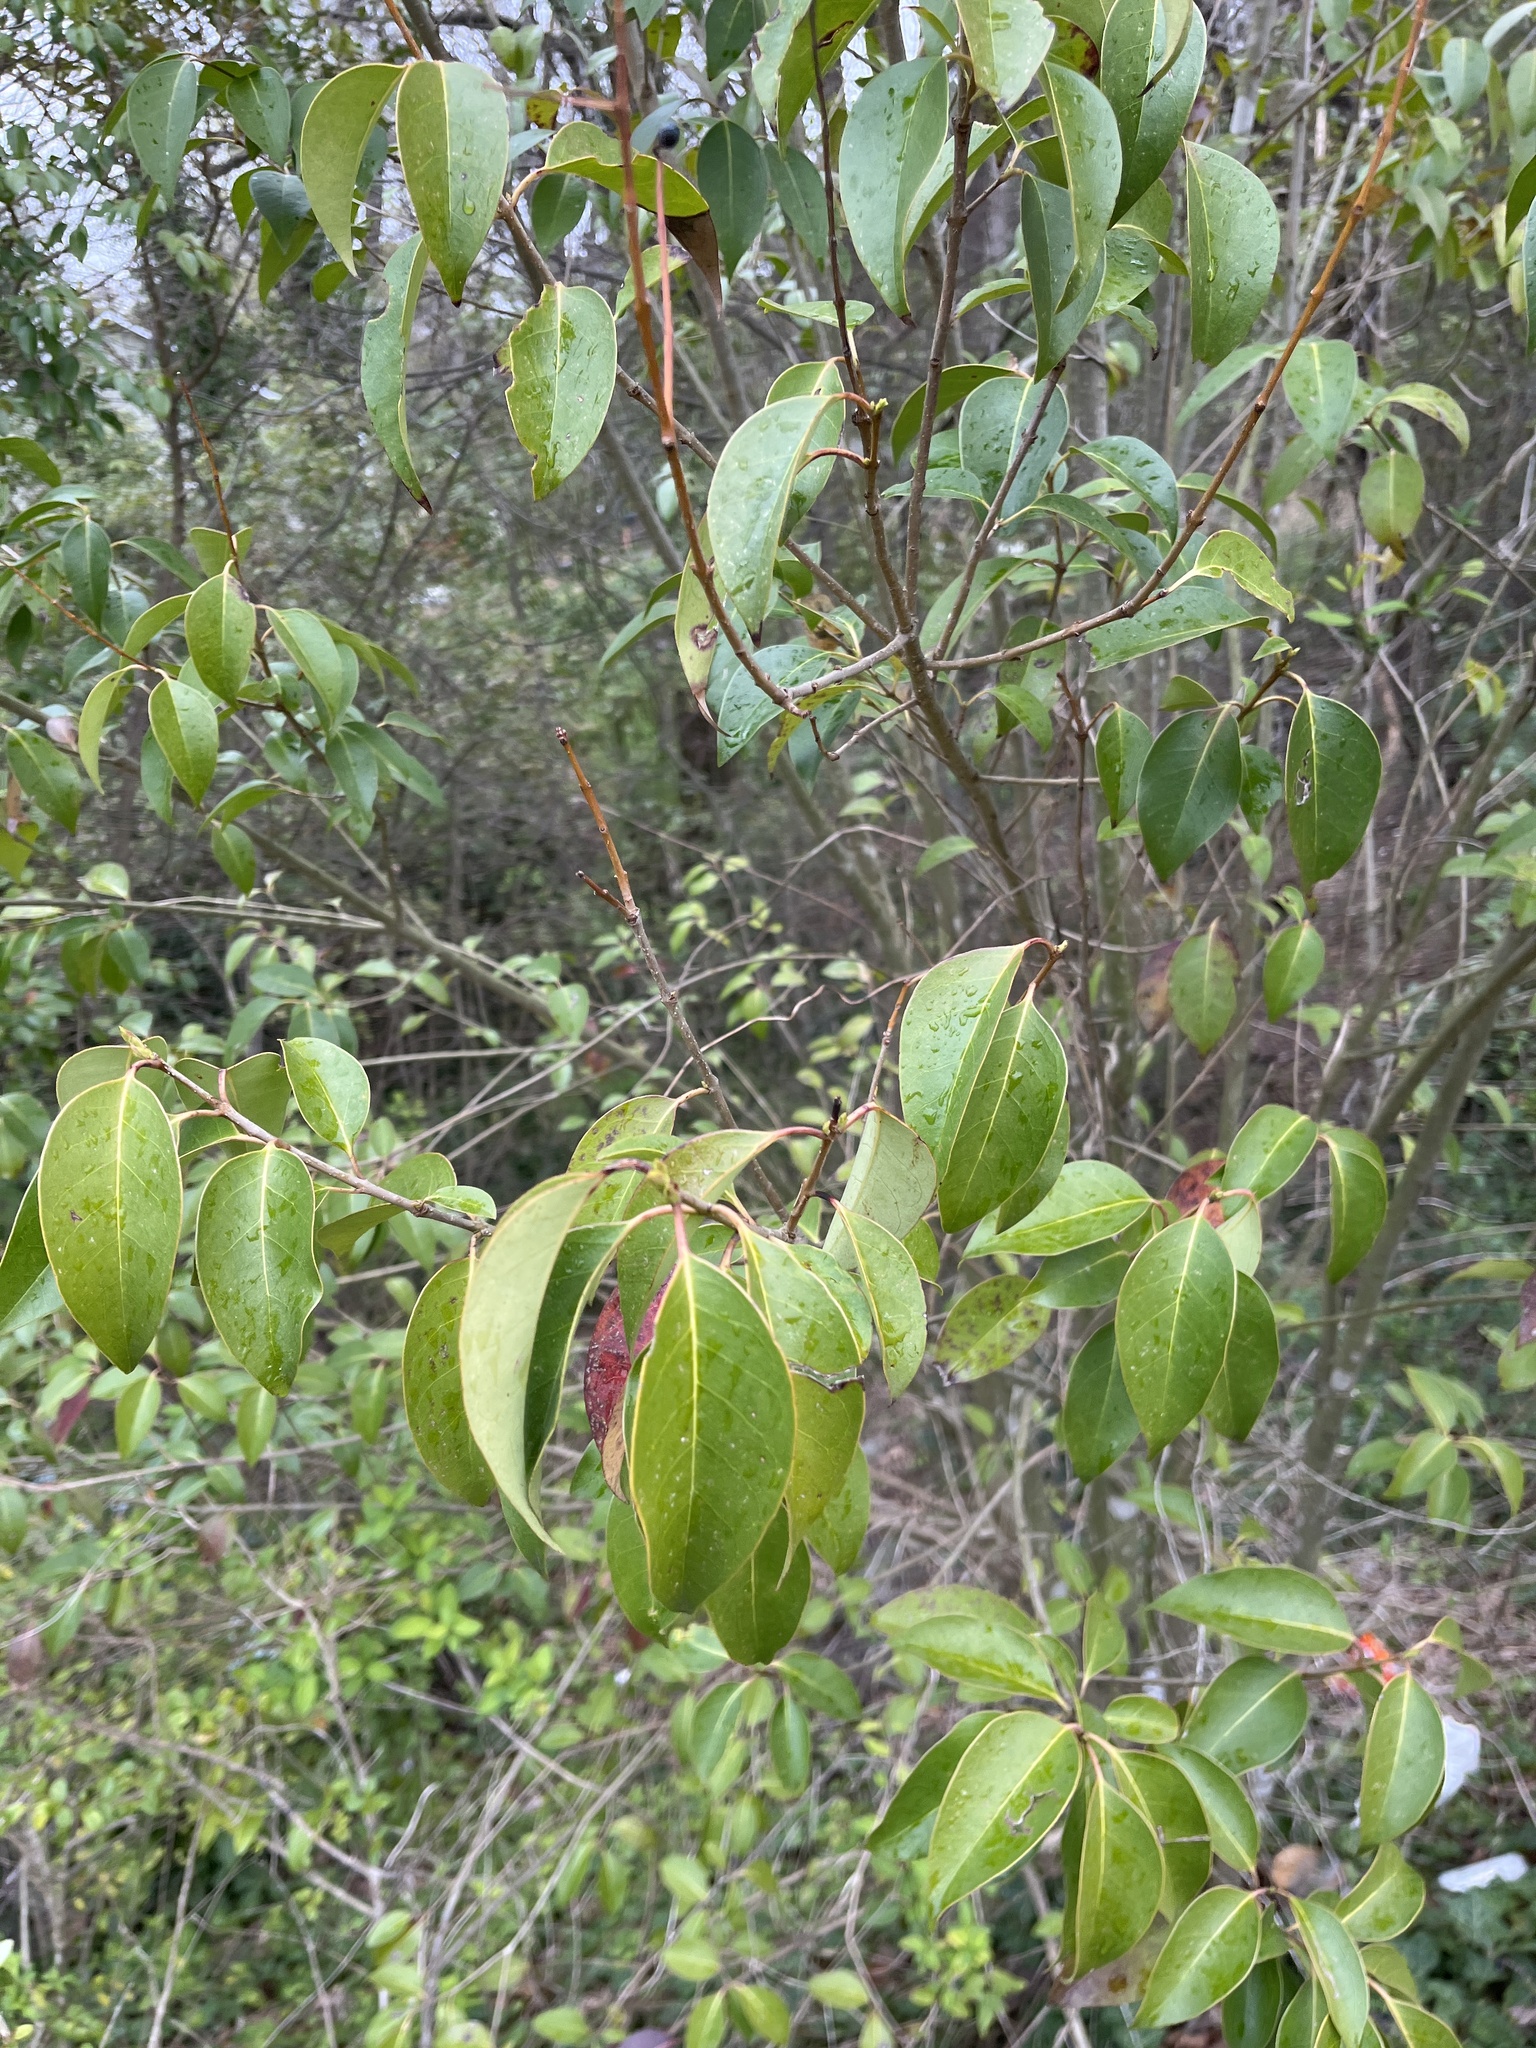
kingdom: Plantae
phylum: Tracheophyta
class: Magnoliopsida
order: Lamiales
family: Oleaceae
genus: Ligustrum
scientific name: Ligustrum lucidum
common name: Glossy privet
